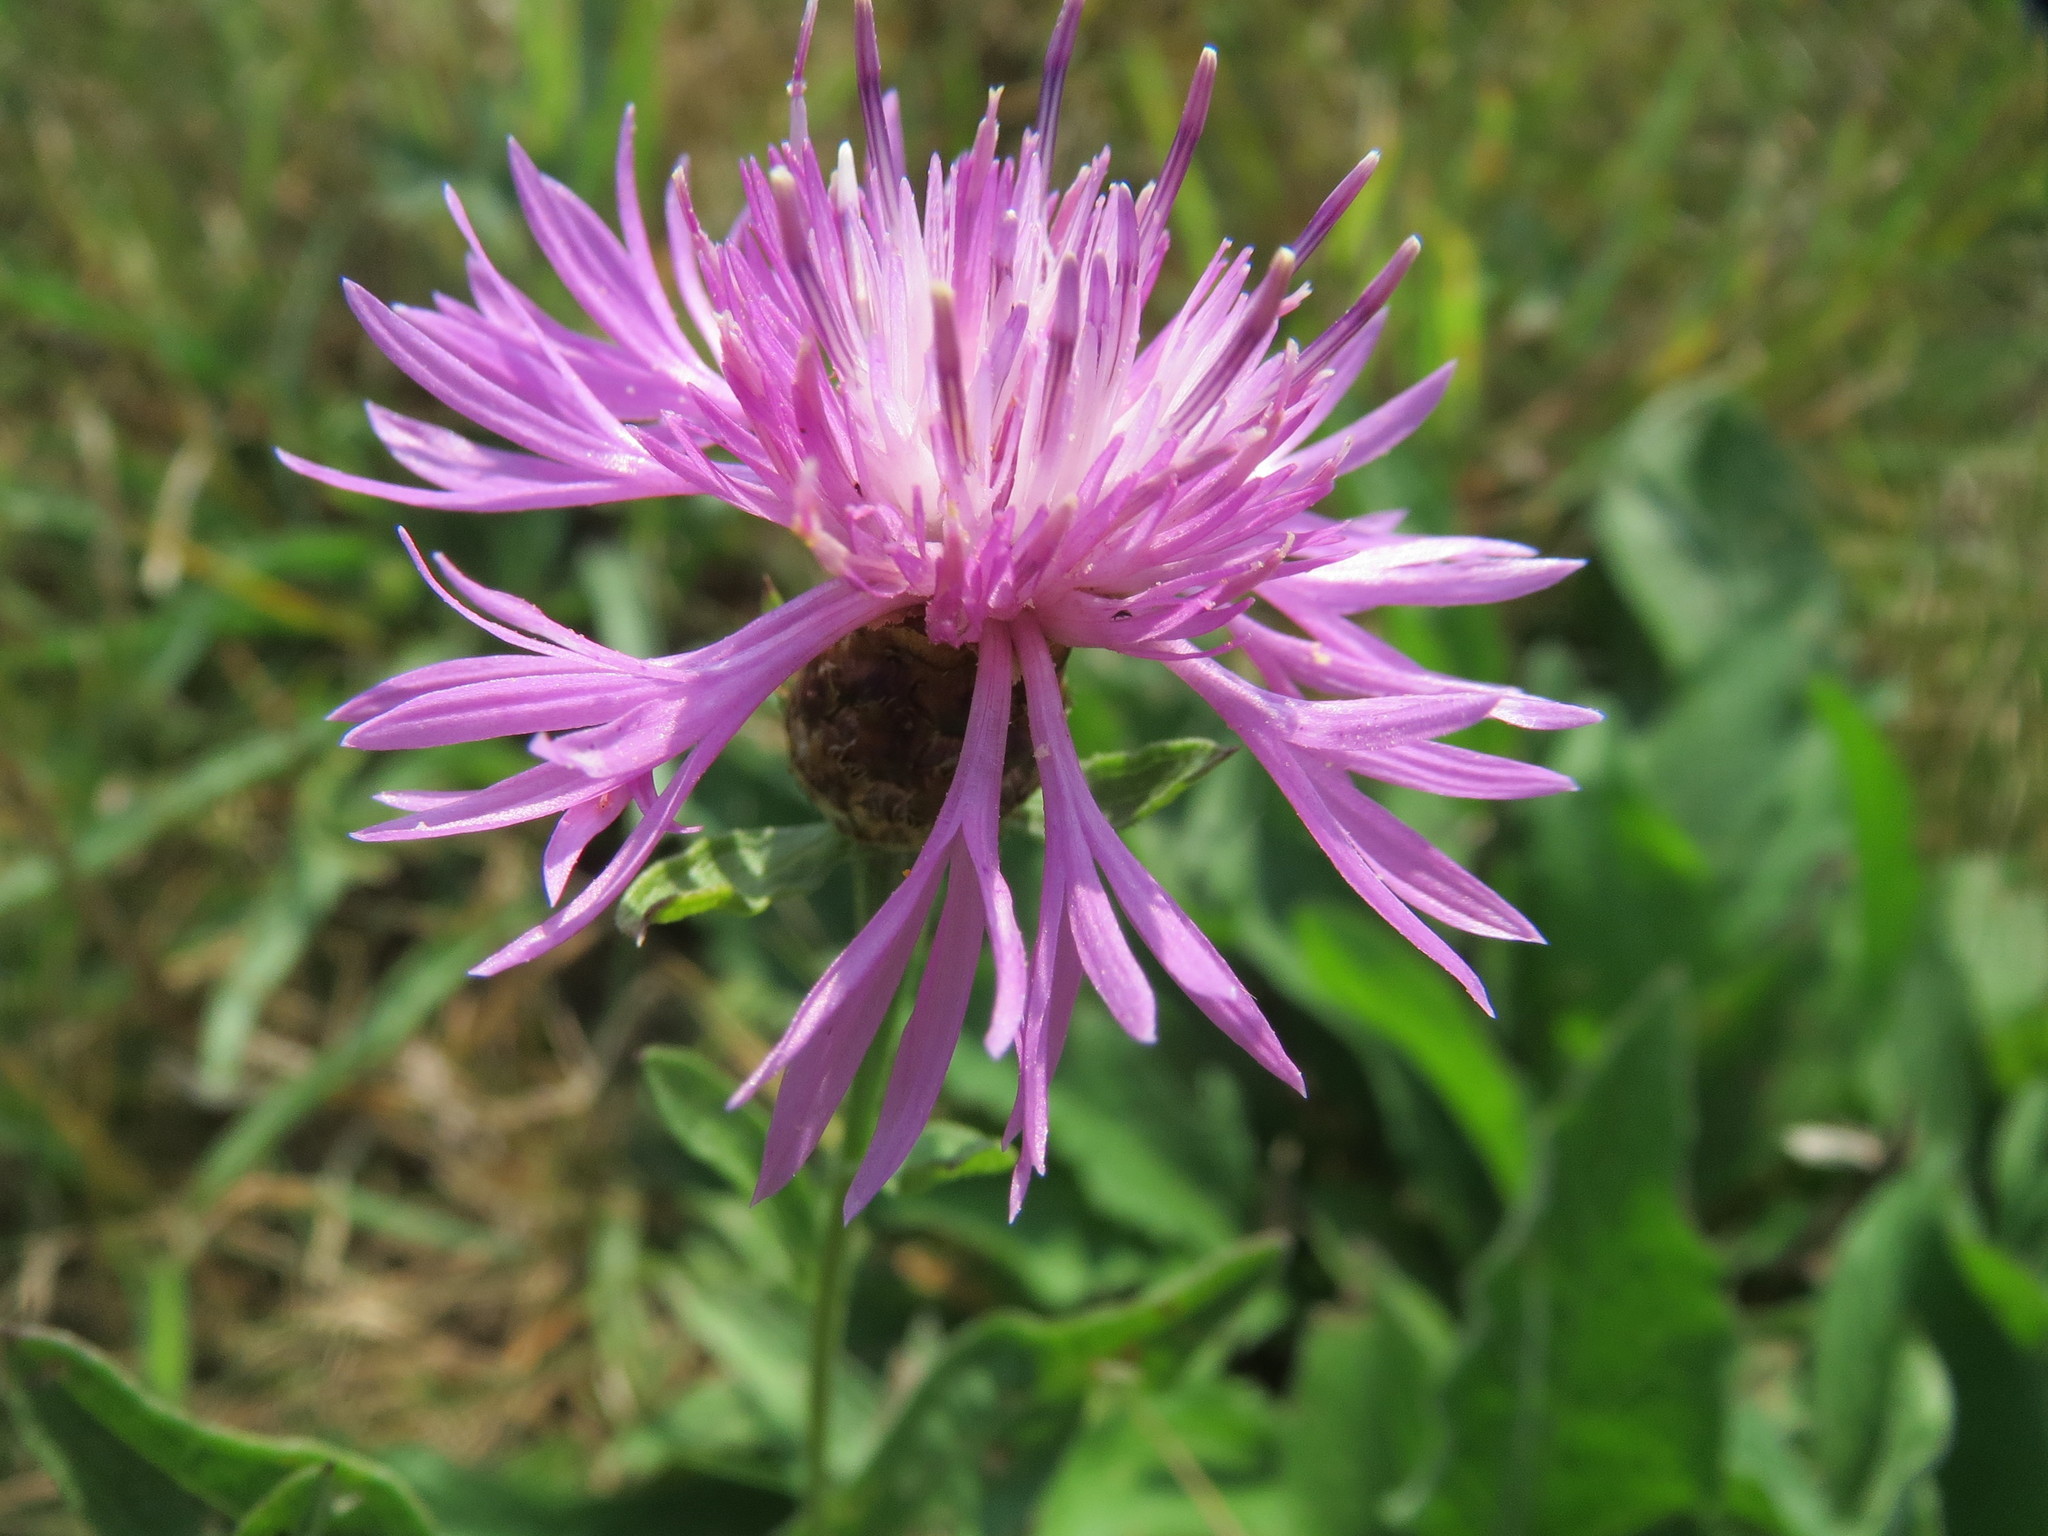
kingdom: Plantae
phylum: Tracheophyta
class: Magnoliopsida
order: Asterales
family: Asteraceae
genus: Centaurea
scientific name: Centaurea jacea
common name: Brown knapweed
